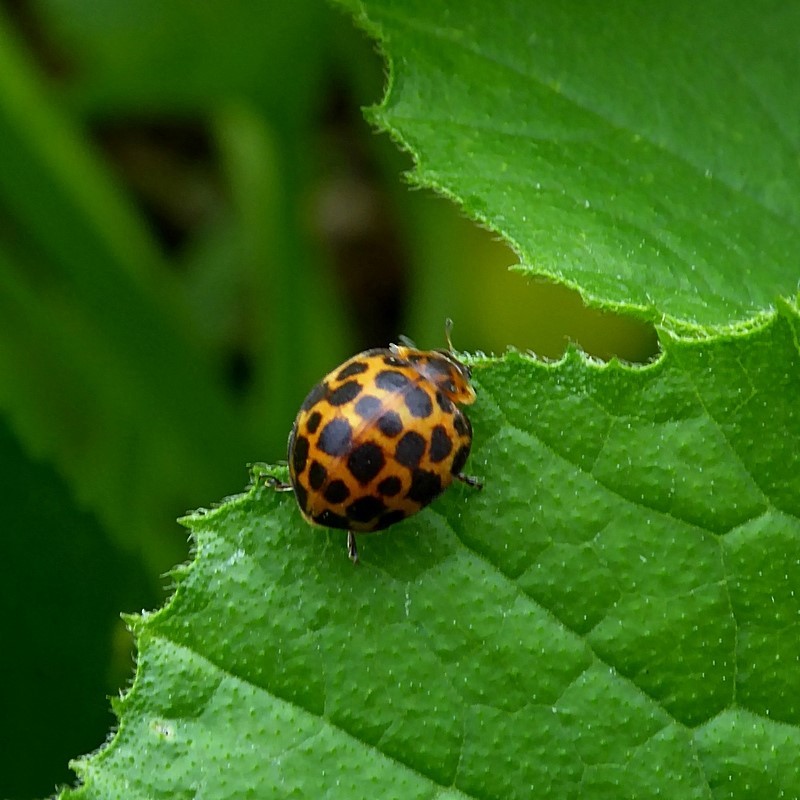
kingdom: Animalia
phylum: Arthropoda
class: Insecta
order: Coleoptera
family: Coccinellidae
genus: Henosepilachna
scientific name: Henosepilachna vigintisexpunctata
